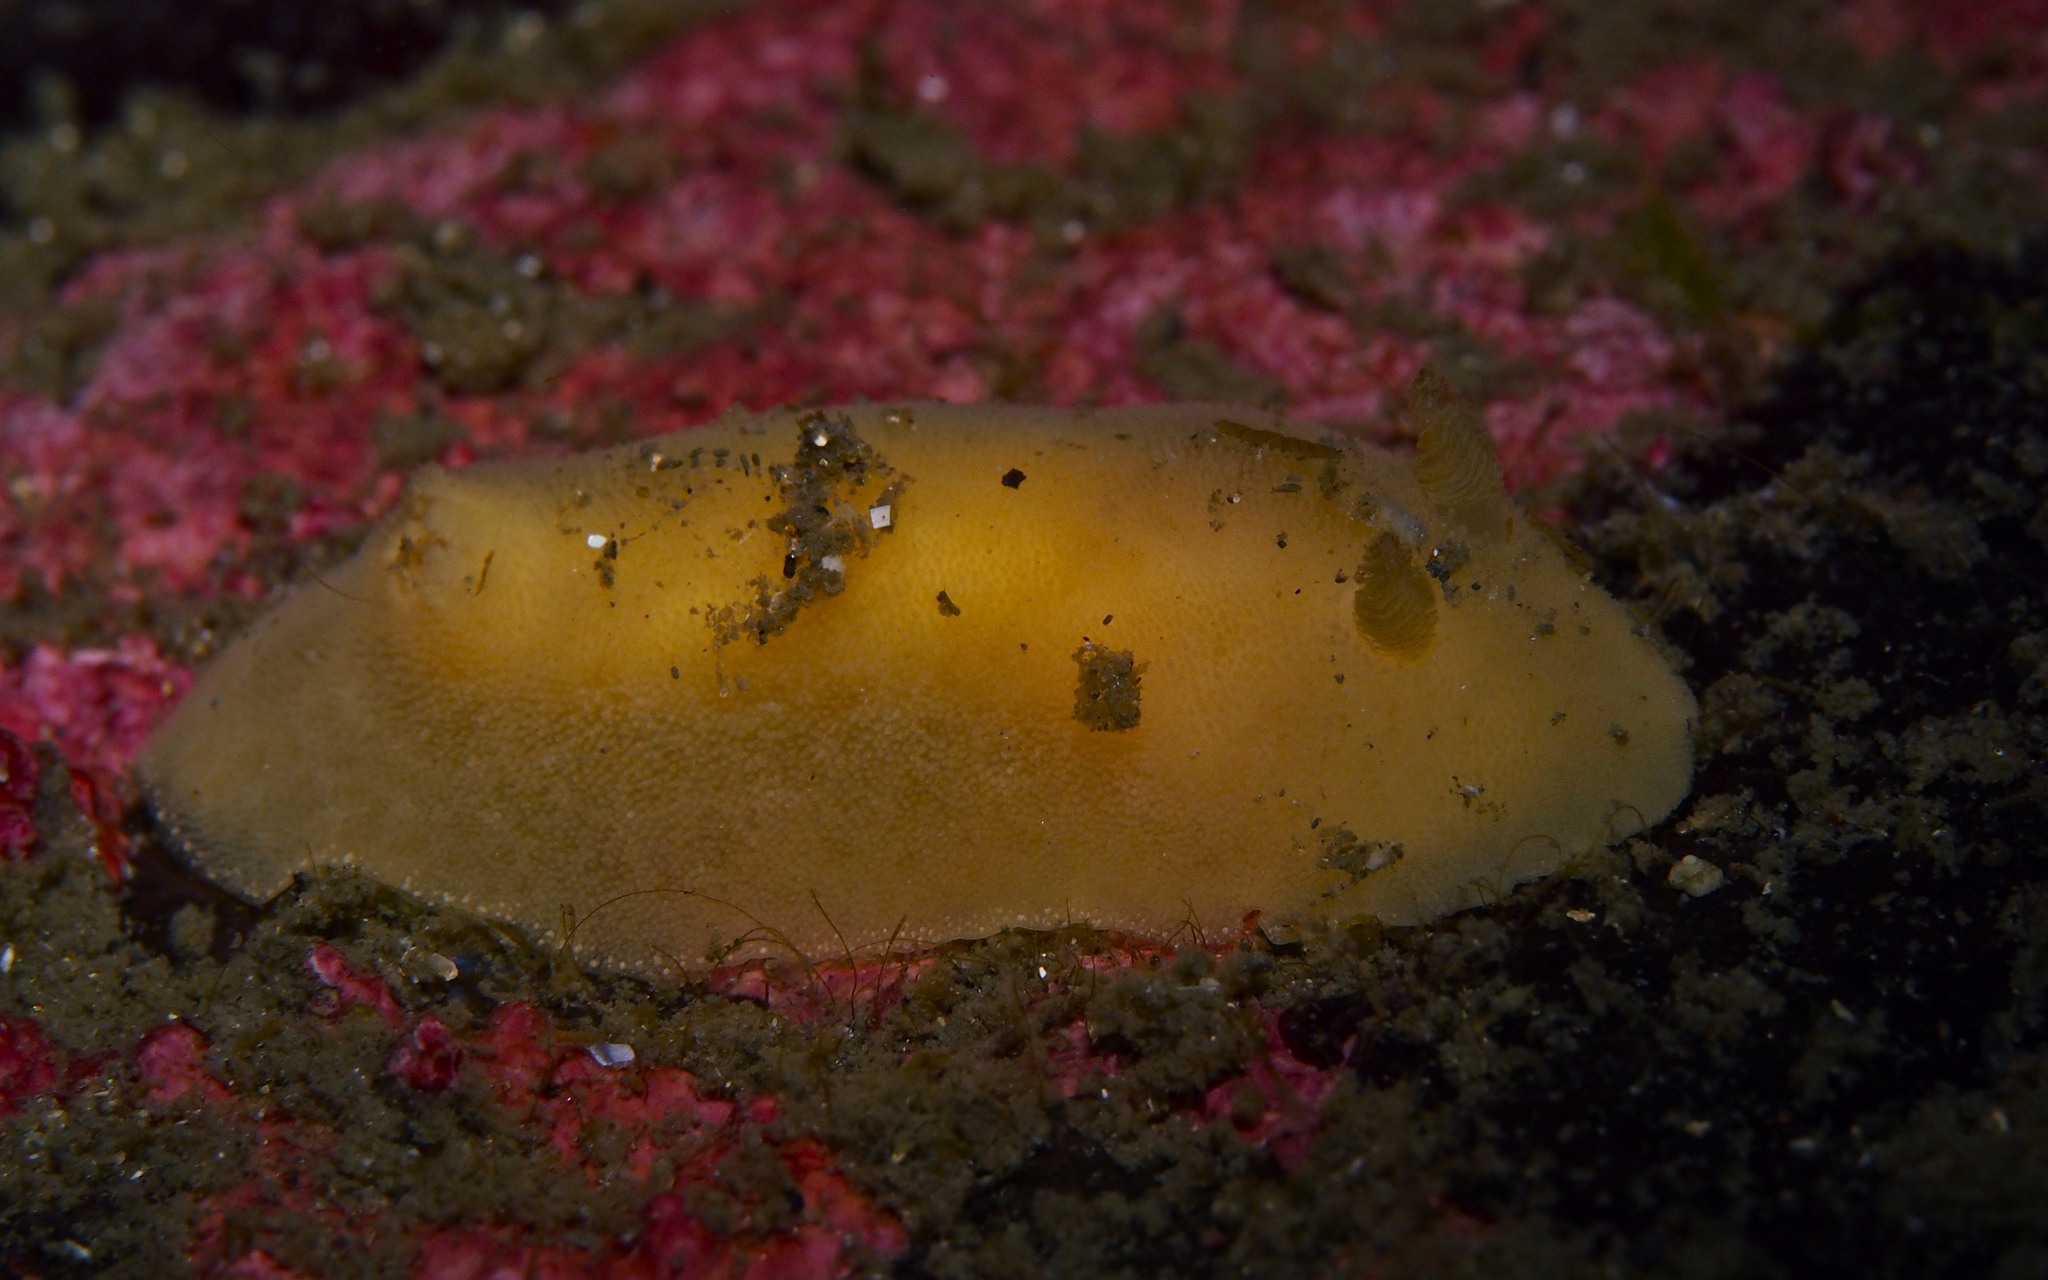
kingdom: Animalia
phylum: Mollusca
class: Gastropoda
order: Nudibranchia
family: Discodorididae
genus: Jorunna
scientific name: Jorunna tomentosa
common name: Grey sea slug
